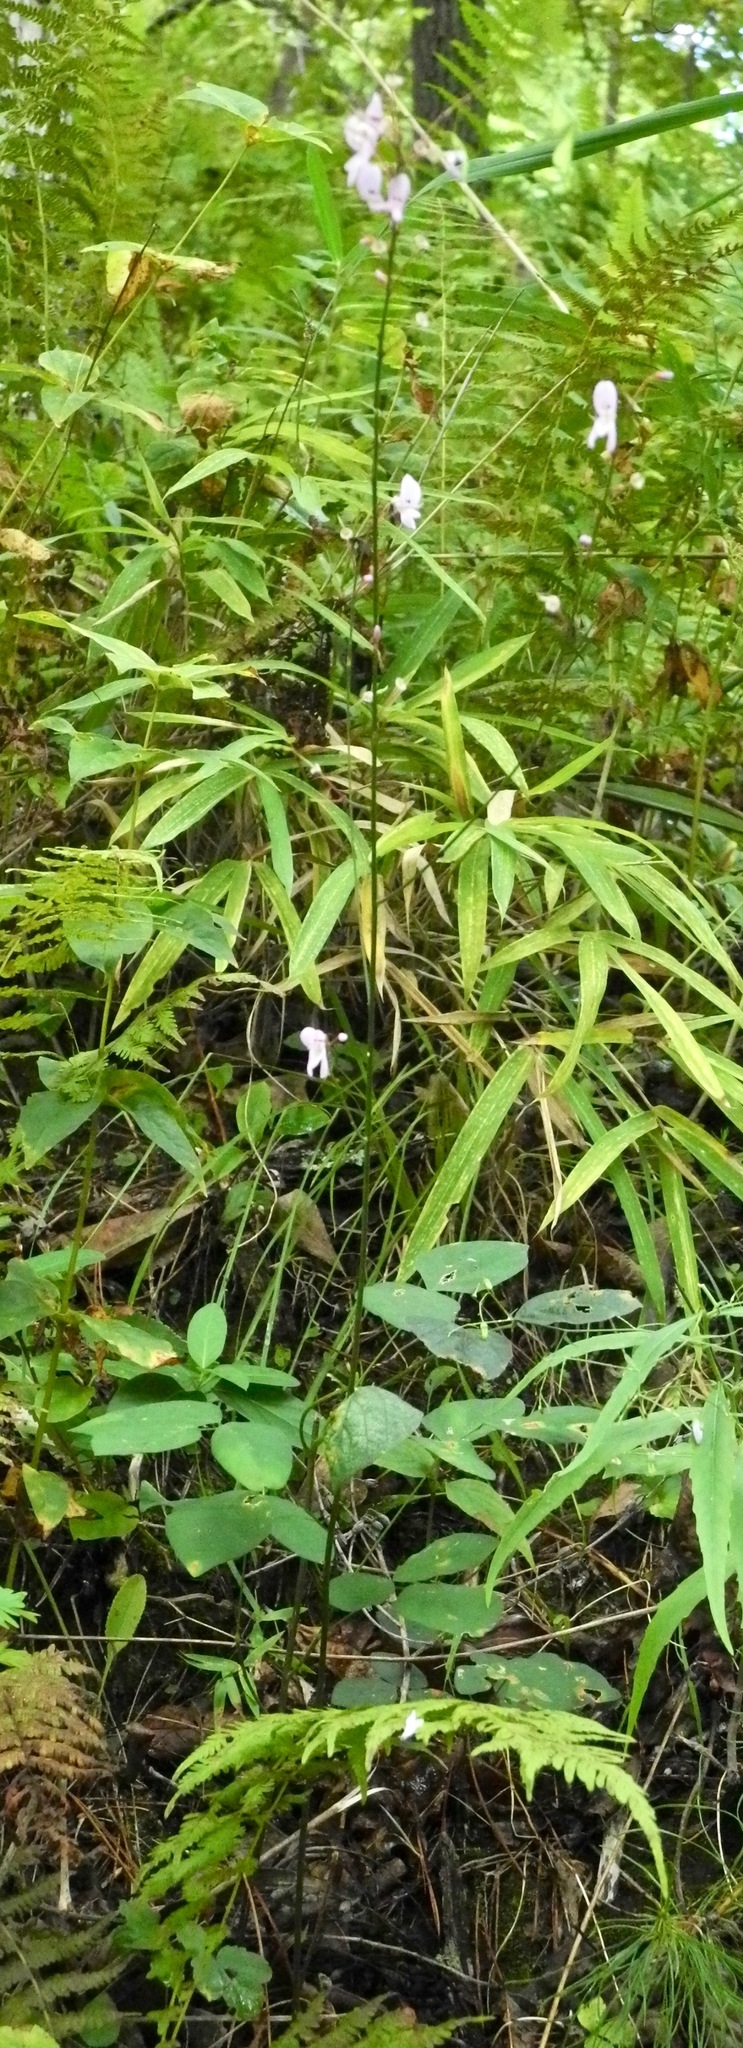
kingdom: Plantae
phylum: Tracheophyta
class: Magnoliopsida
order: Fabales
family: Fabaceae
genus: Hylodesmum
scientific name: Hylodesmum nudiflorum
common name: Bare-stemmed tick-trefoil
